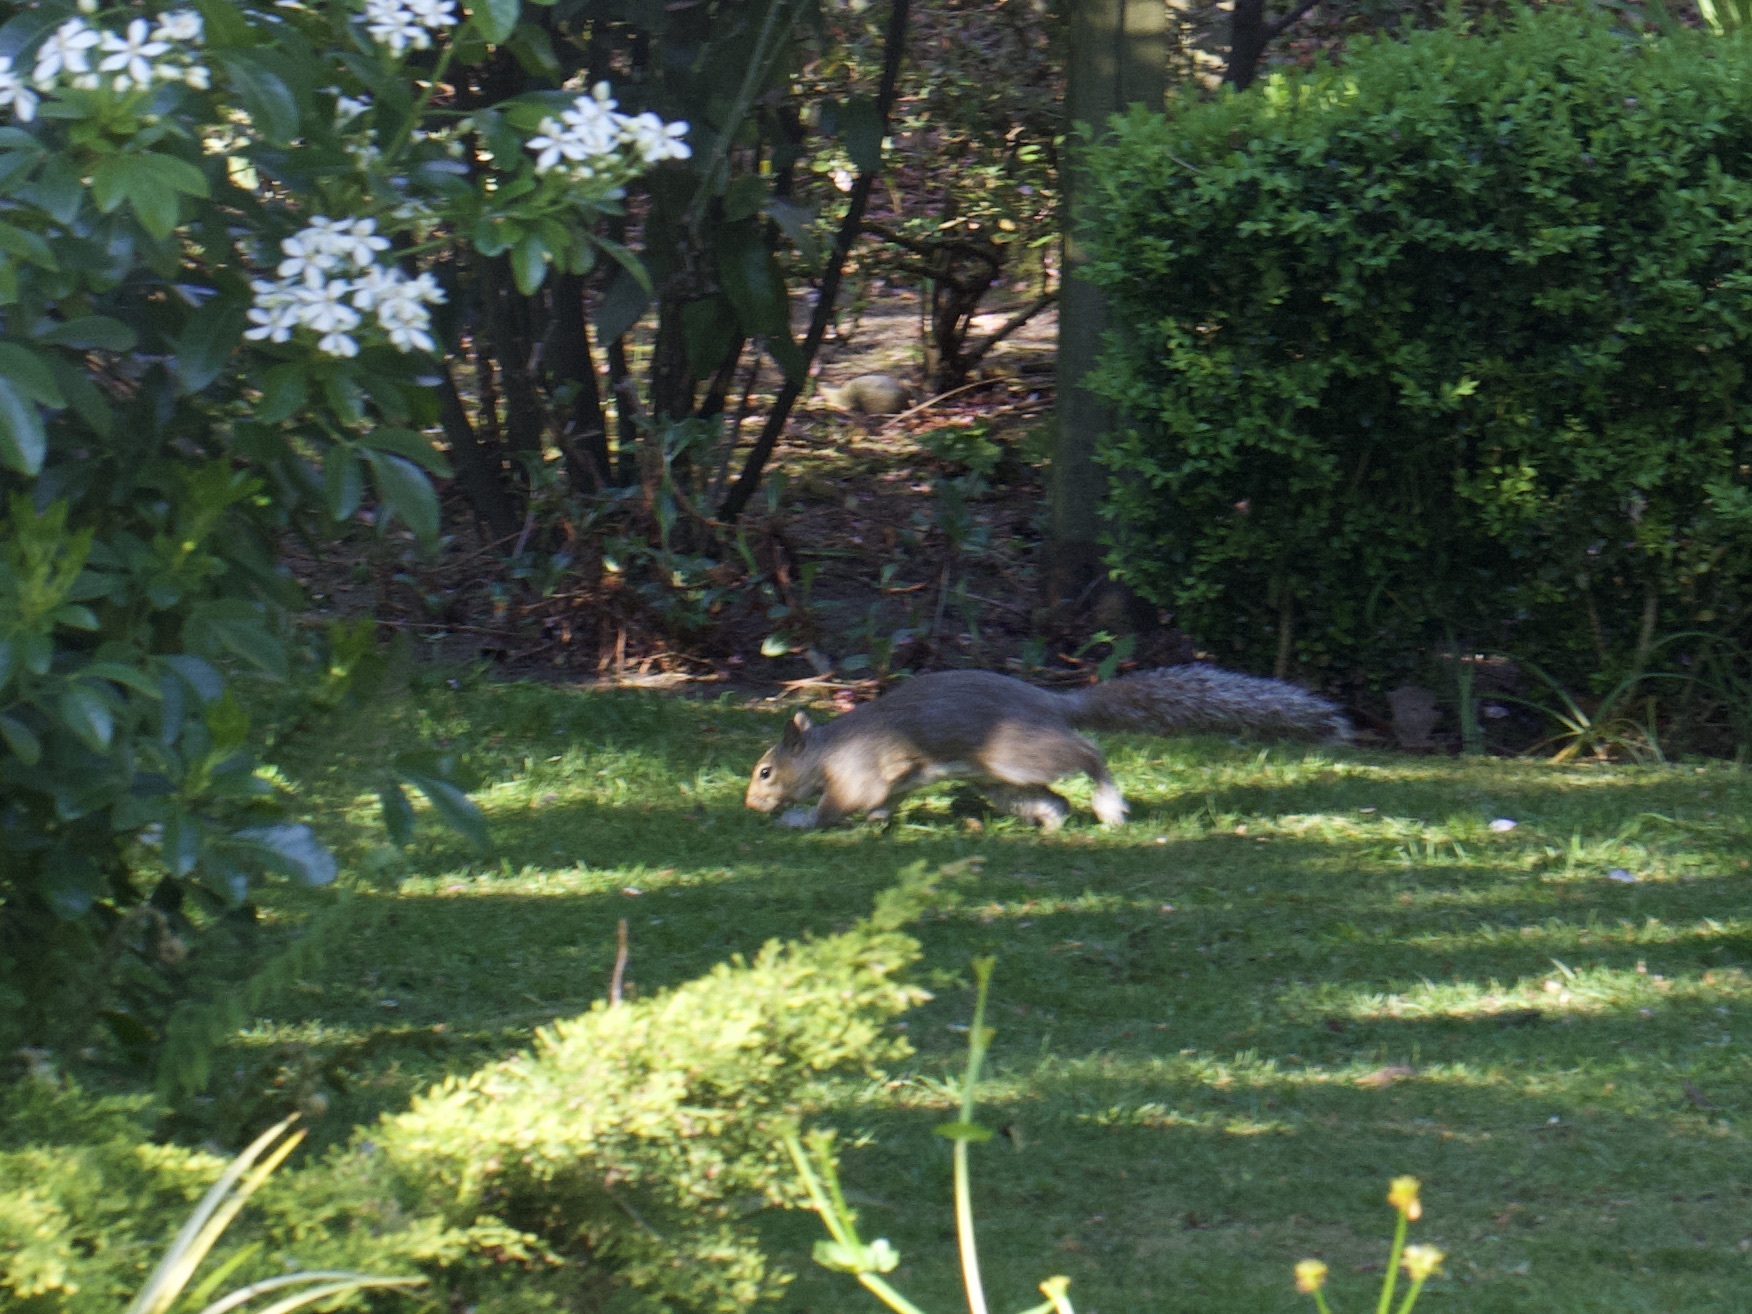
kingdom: Animalia
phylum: Chordata
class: Mammalia
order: Rodentia
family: Sciuridae
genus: Sciurus
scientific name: Sciurus carolinensis
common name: Eastern gray squirrel
